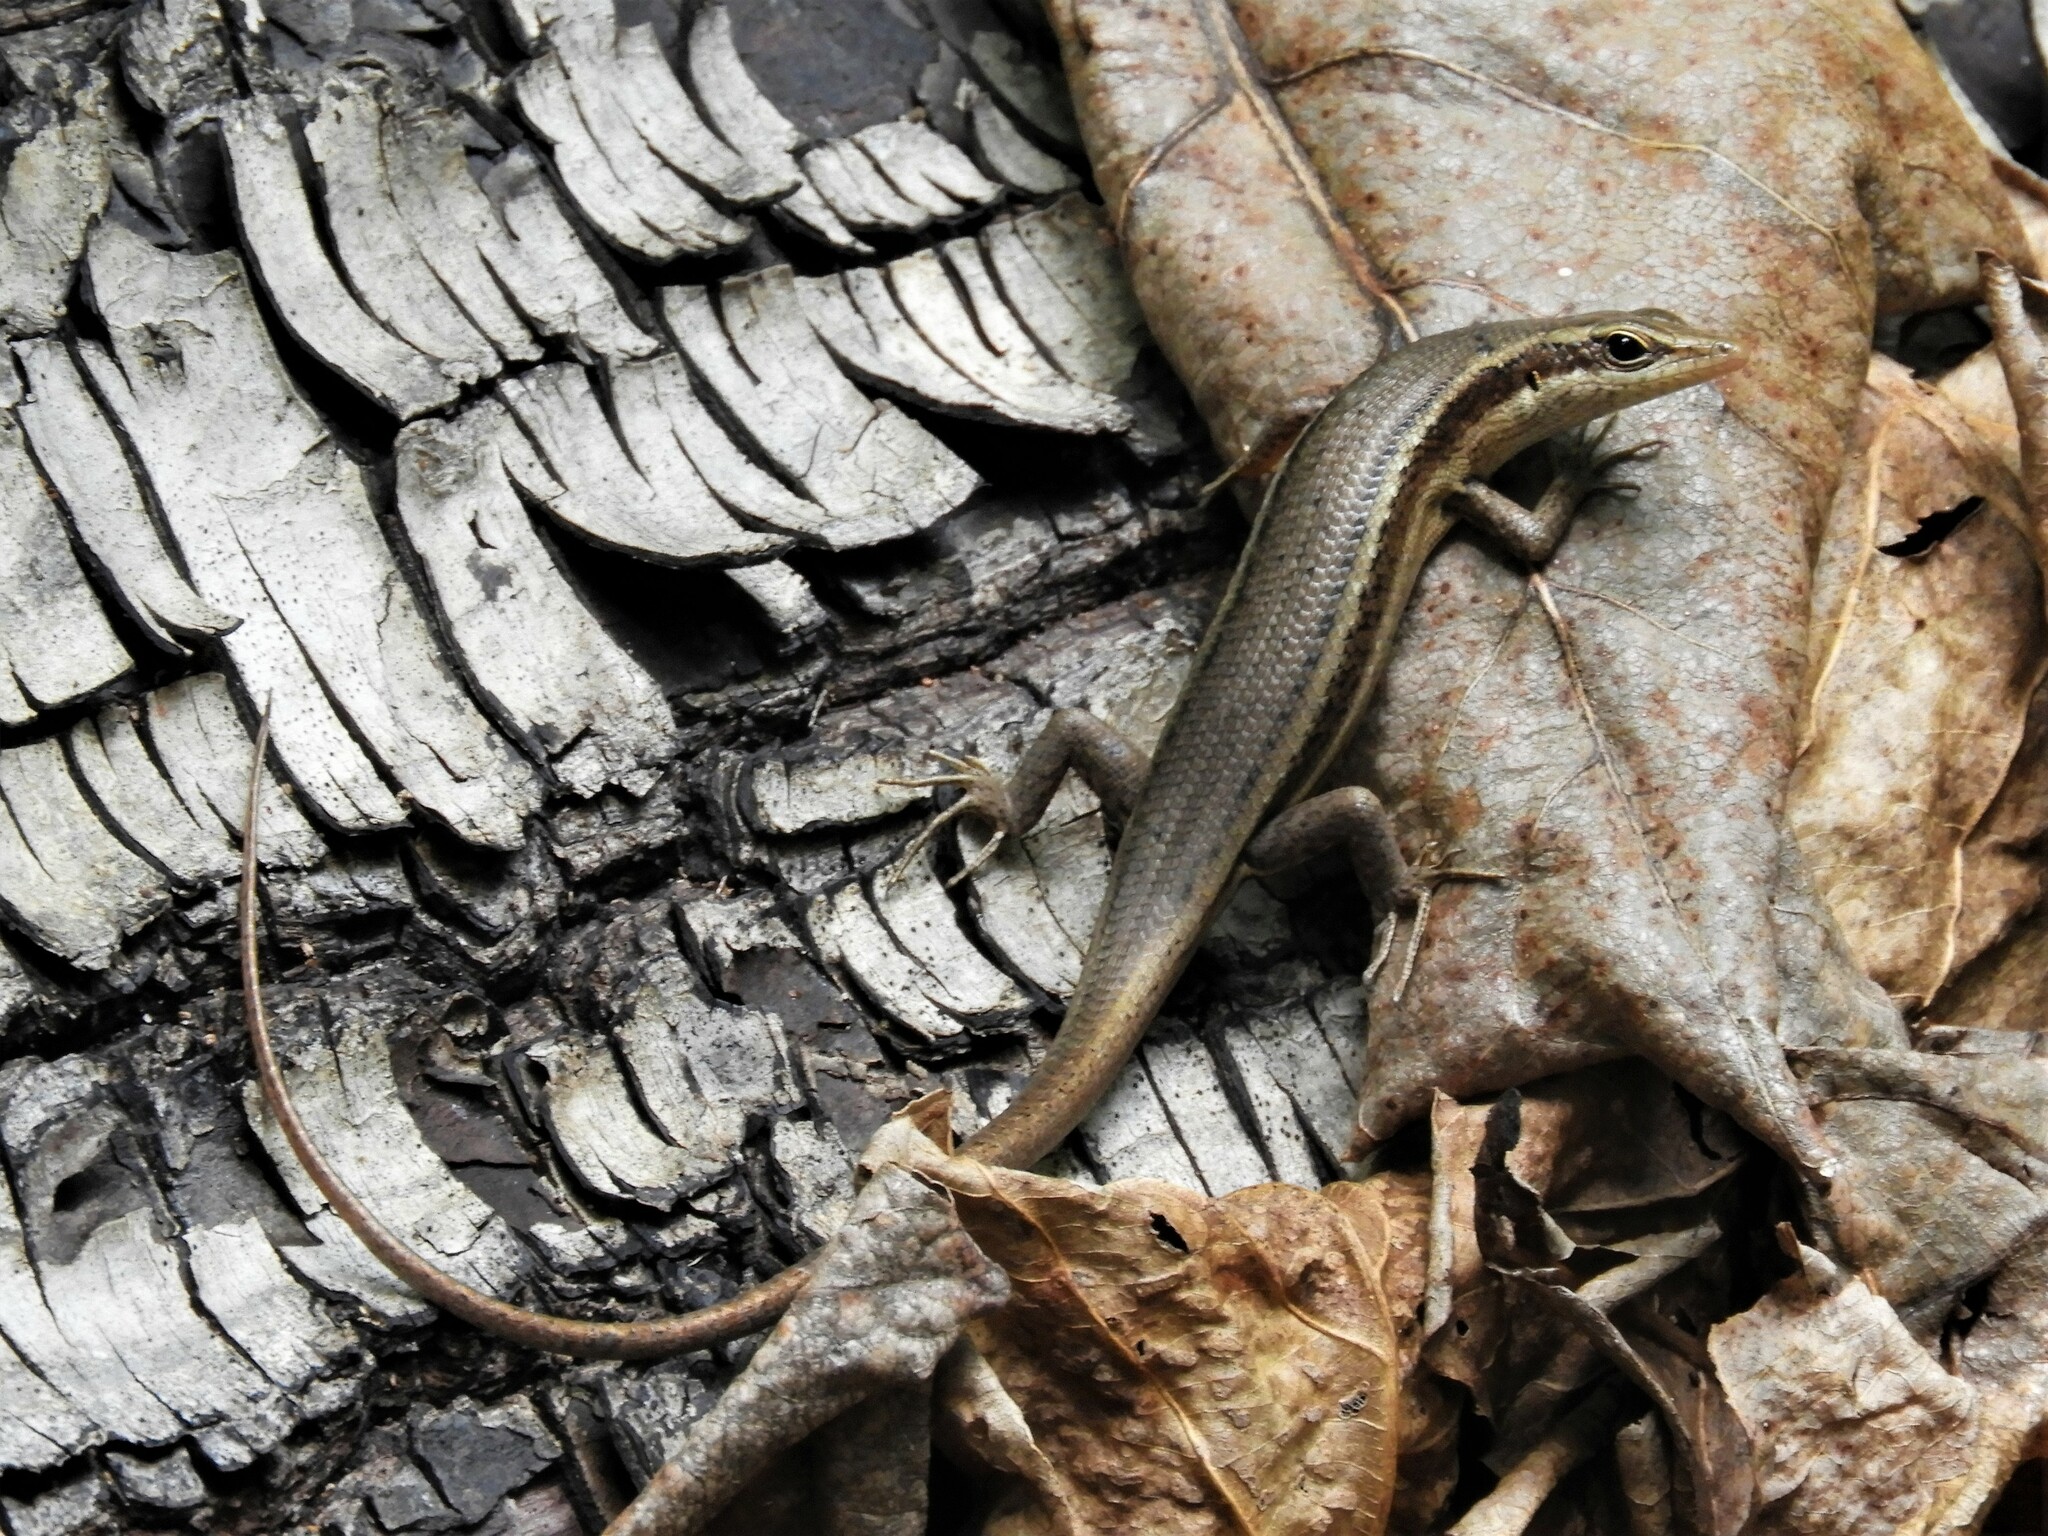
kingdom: Animalia
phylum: Chordata
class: Squamata
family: Scincidae
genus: Trachylepis
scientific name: Trachylepis sechellensis
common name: Seychelles skink
